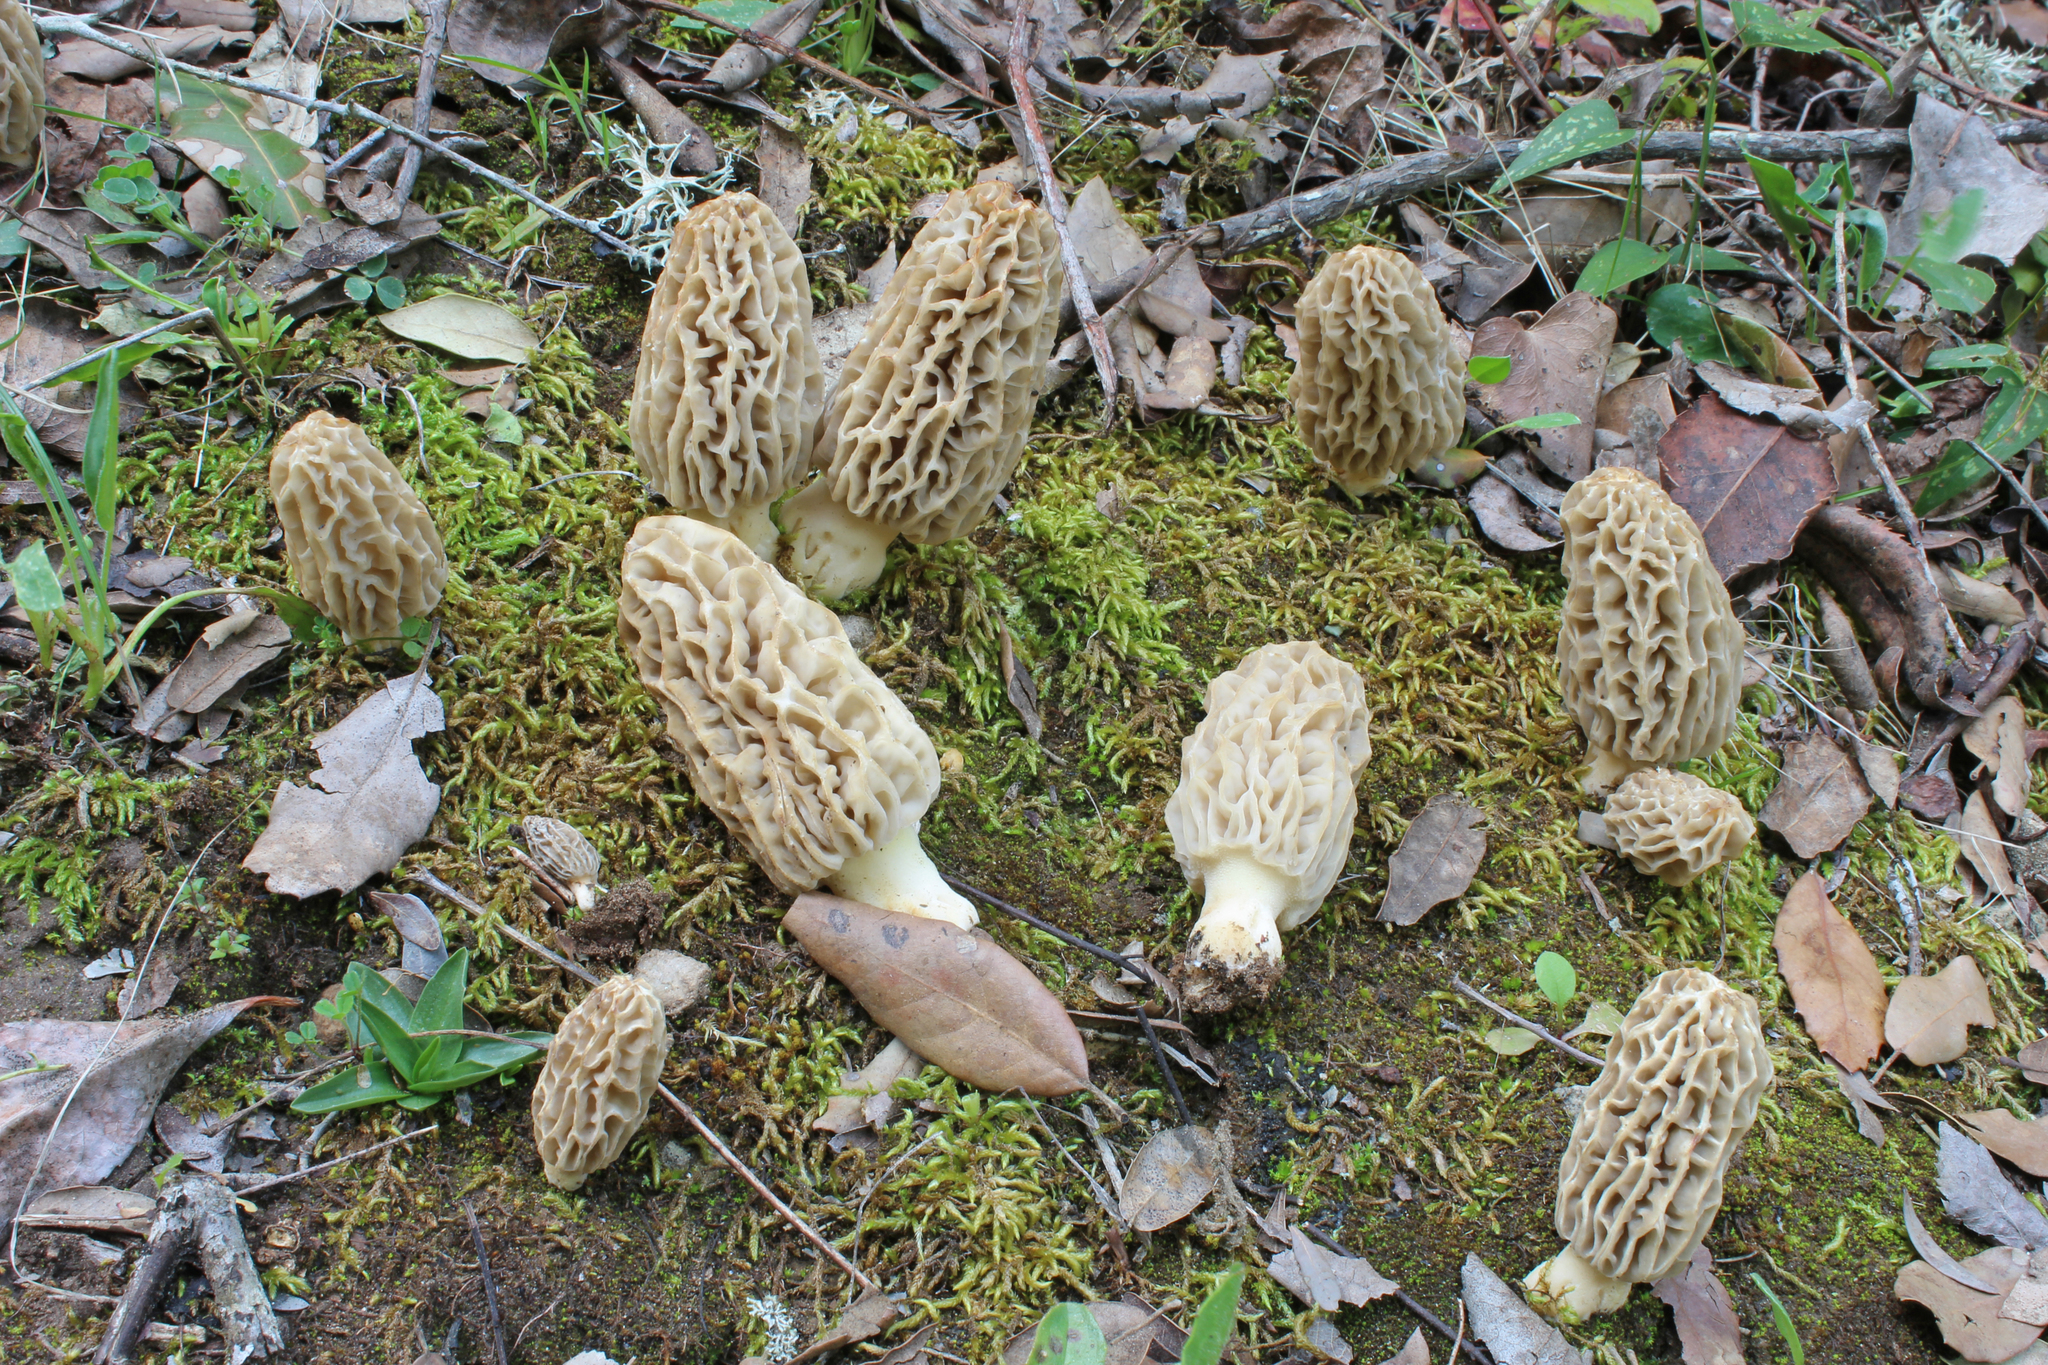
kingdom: Fungi
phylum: Ascomycota
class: Pezizomycetes
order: Pezizales
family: Morchellaceae
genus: Morchella
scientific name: Morchella tridentina
